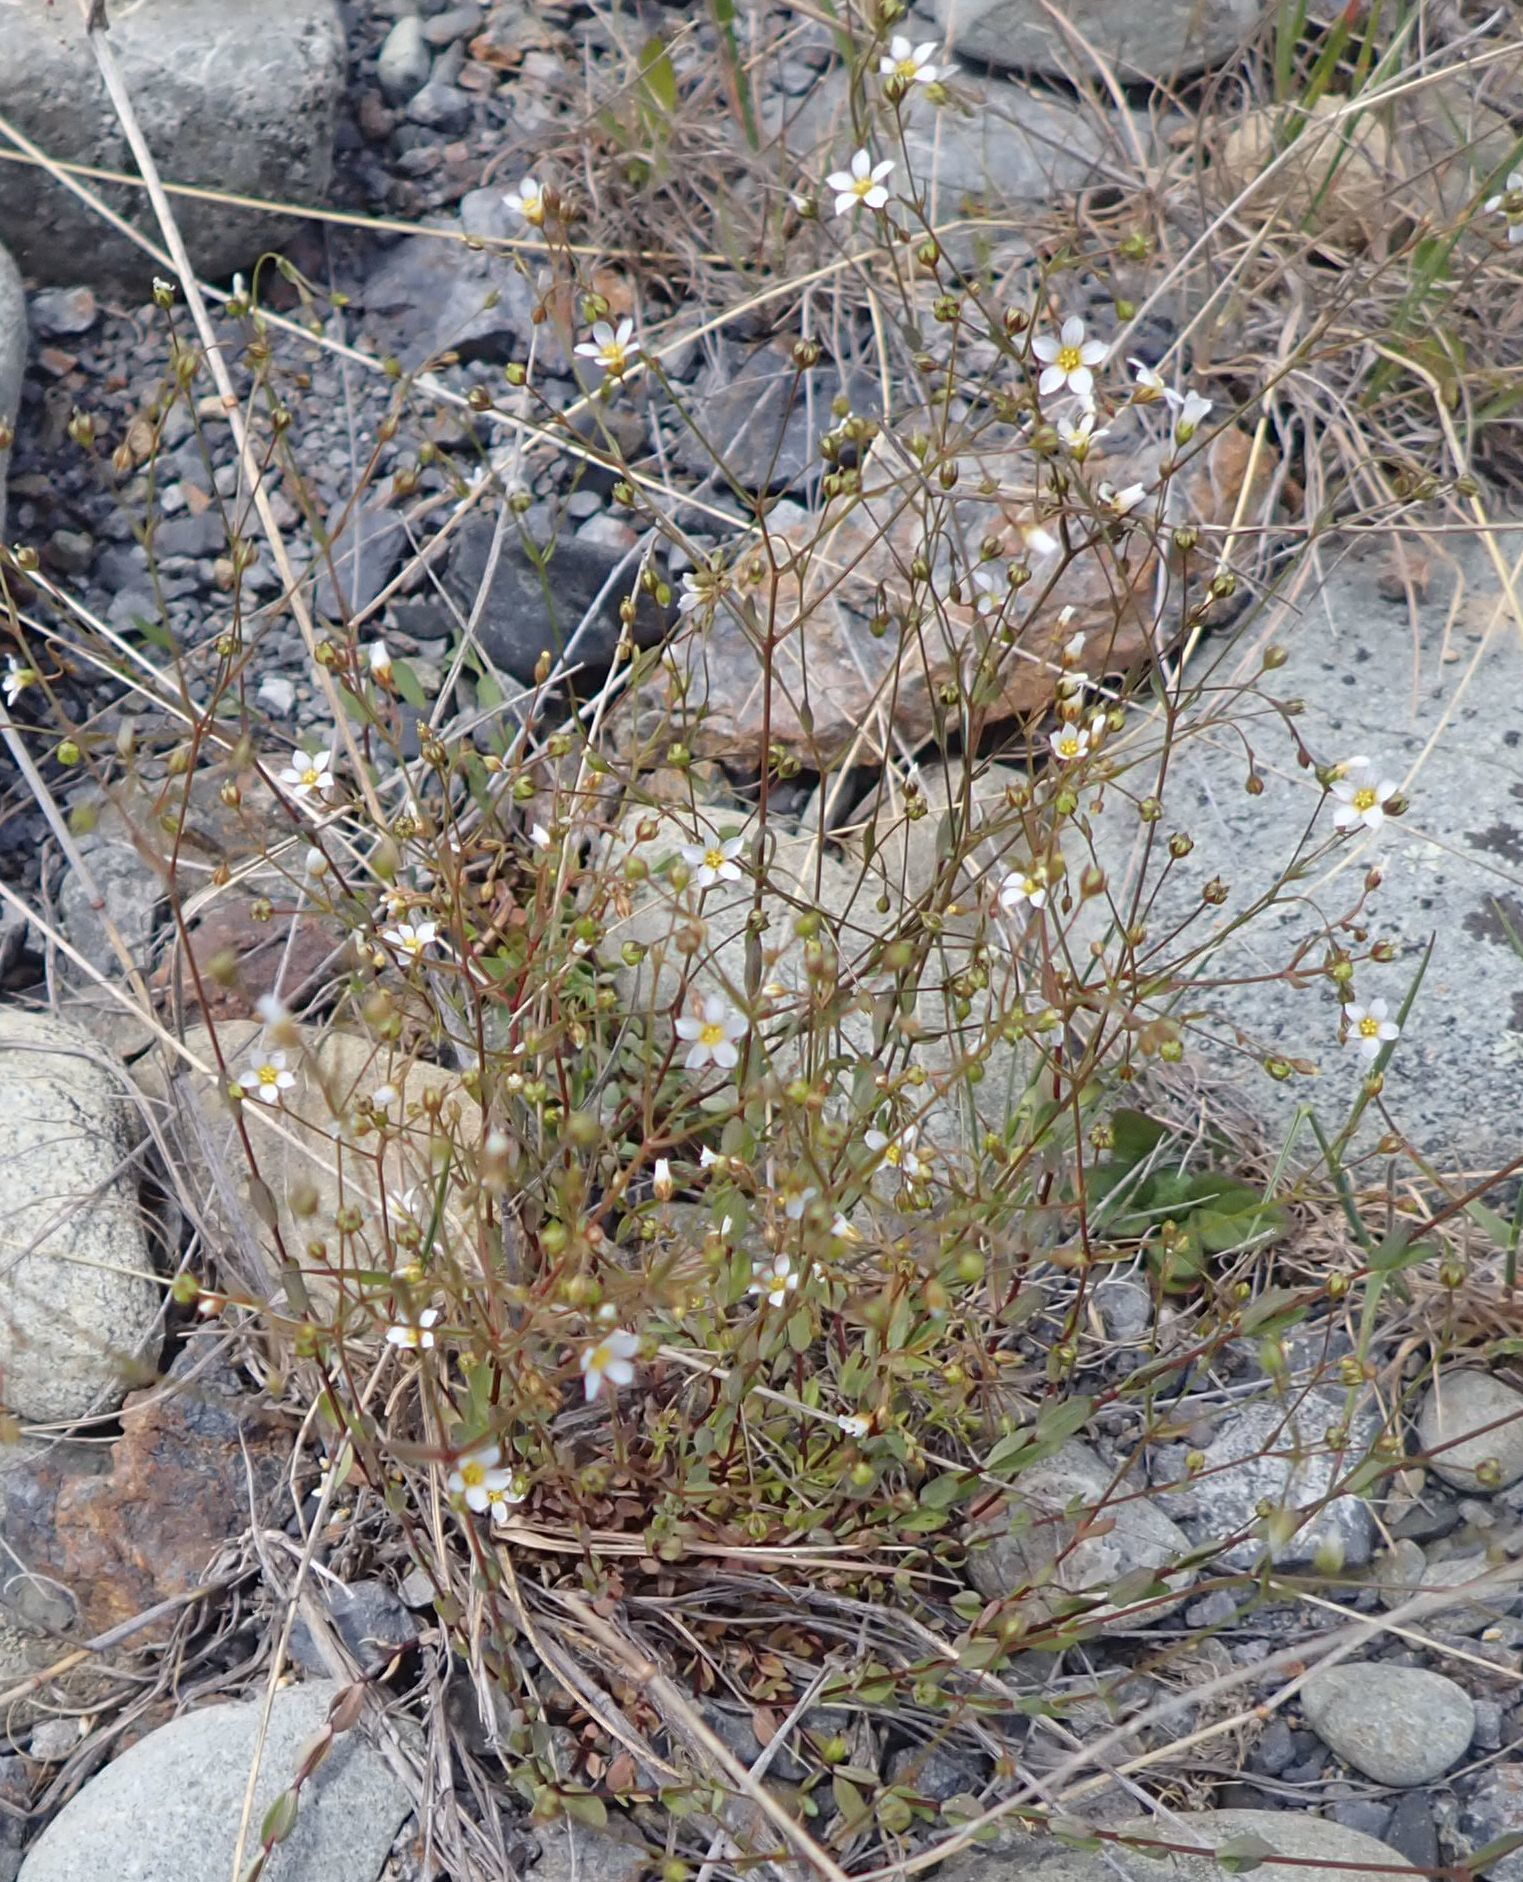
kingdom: Plantae
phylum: Tracheophyta
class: Magnoliopsida
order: Malpighiales
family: Linaceae
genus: Linum
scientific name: Linum catharticum
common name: Fairy flax
